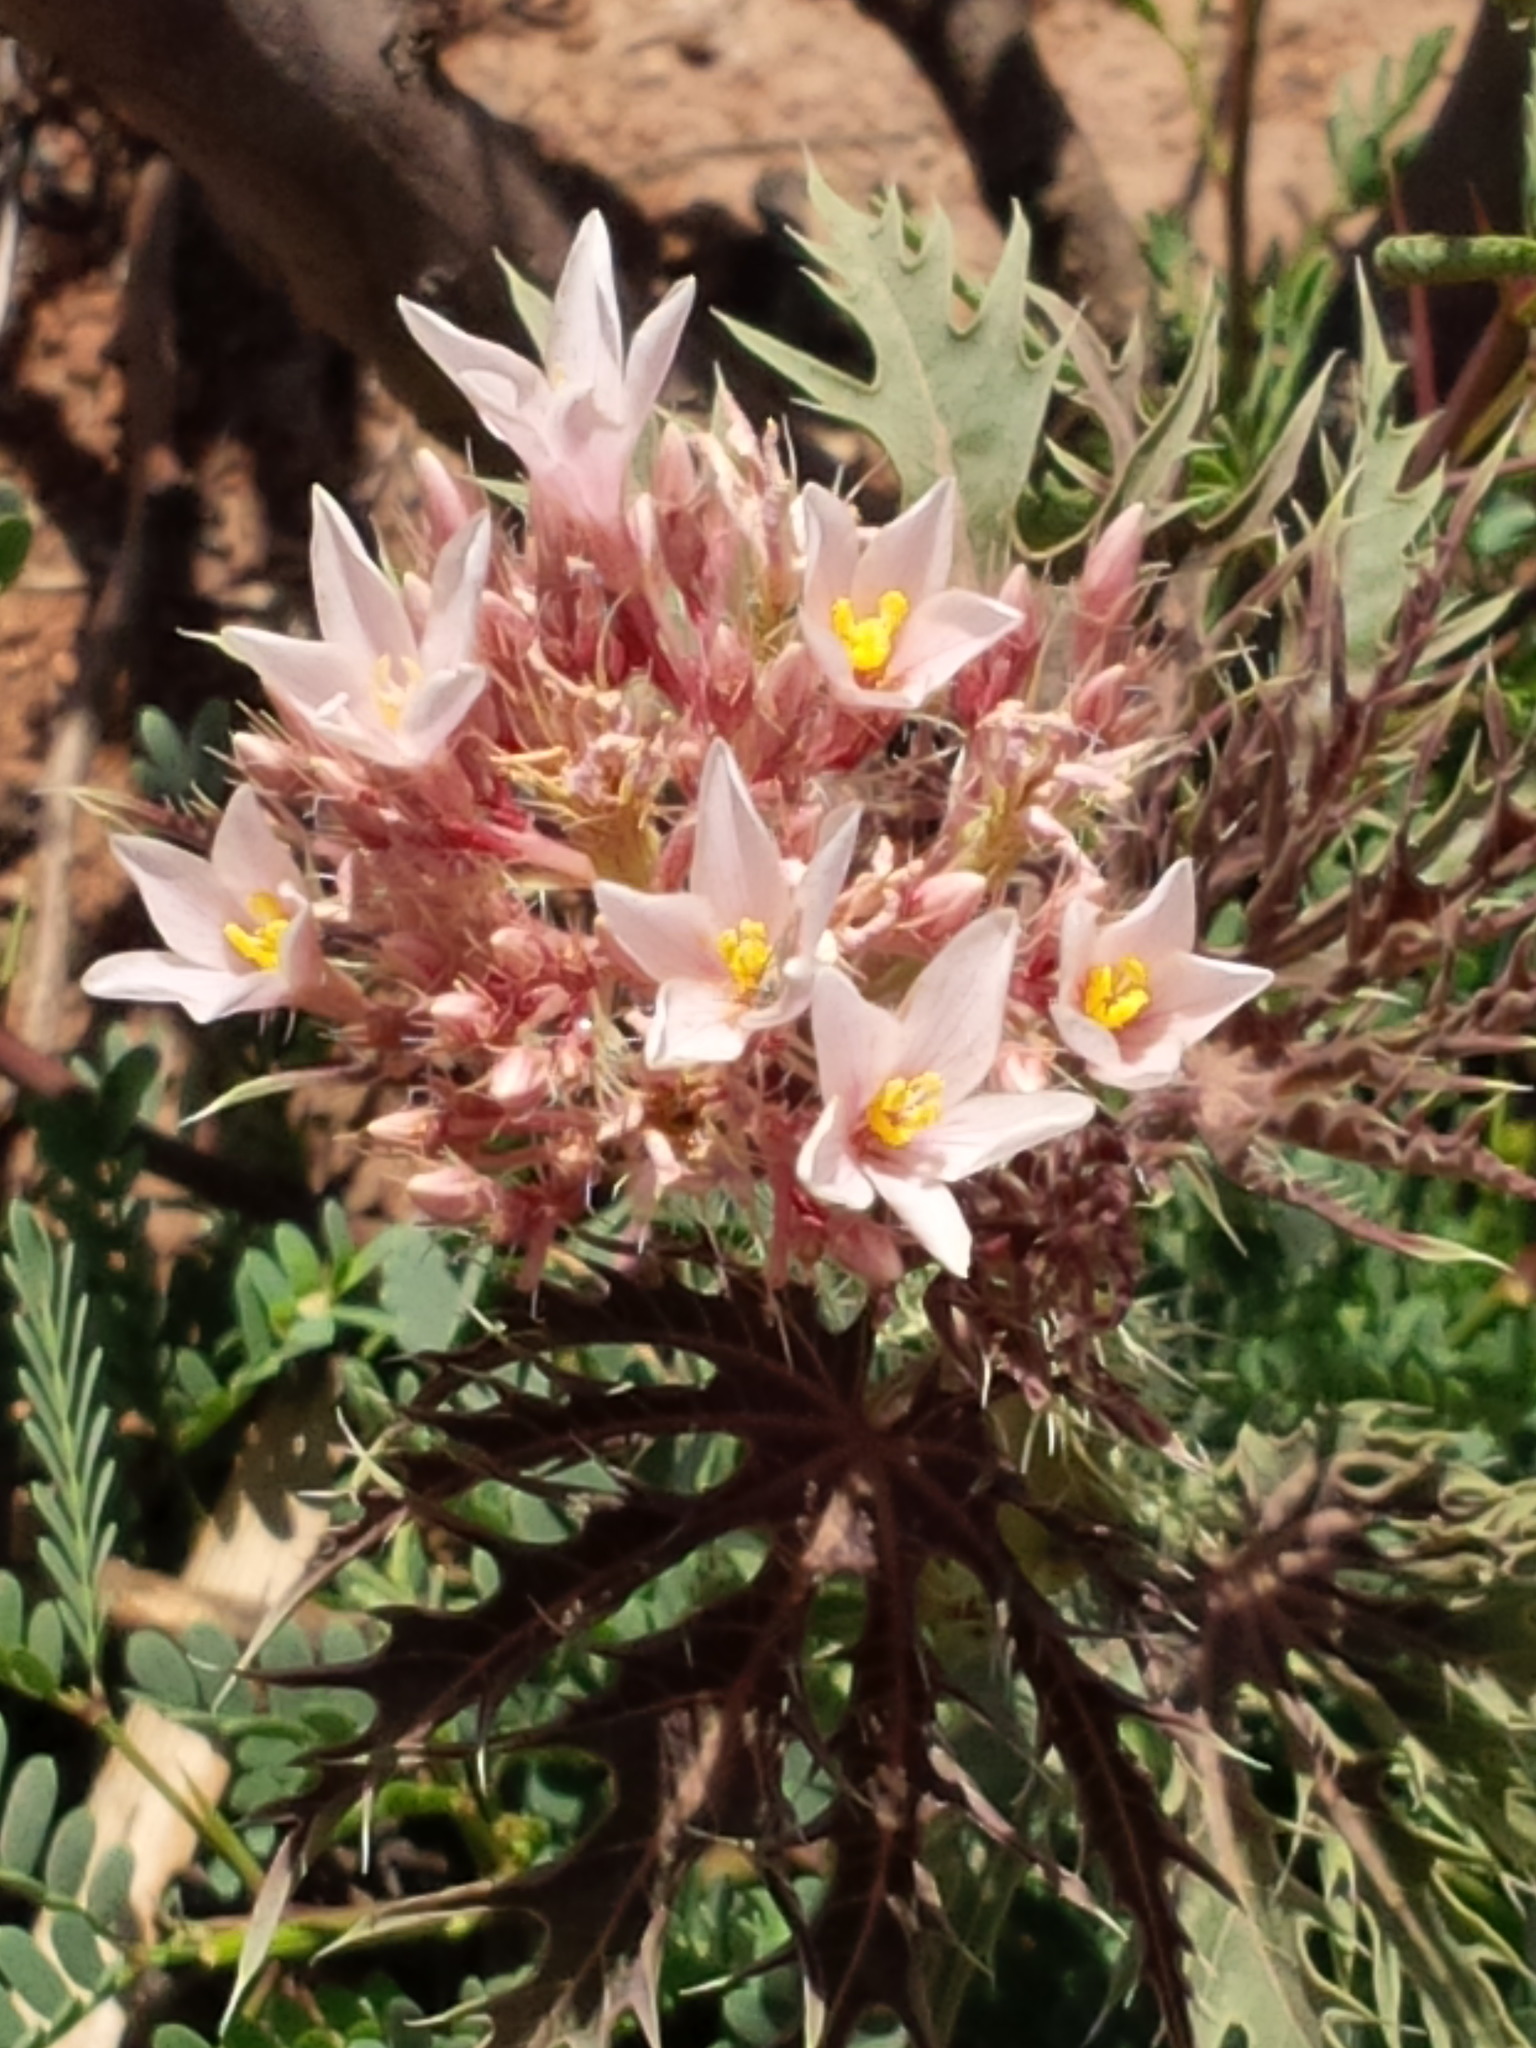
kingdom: Plantae
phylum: Tracheophyta
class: Magnoliopsida
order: Malpighiales
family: Euphorbiaceae
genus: Jatropha
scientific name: Jatropha macrorhiza
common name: Ragged nettlespurge
